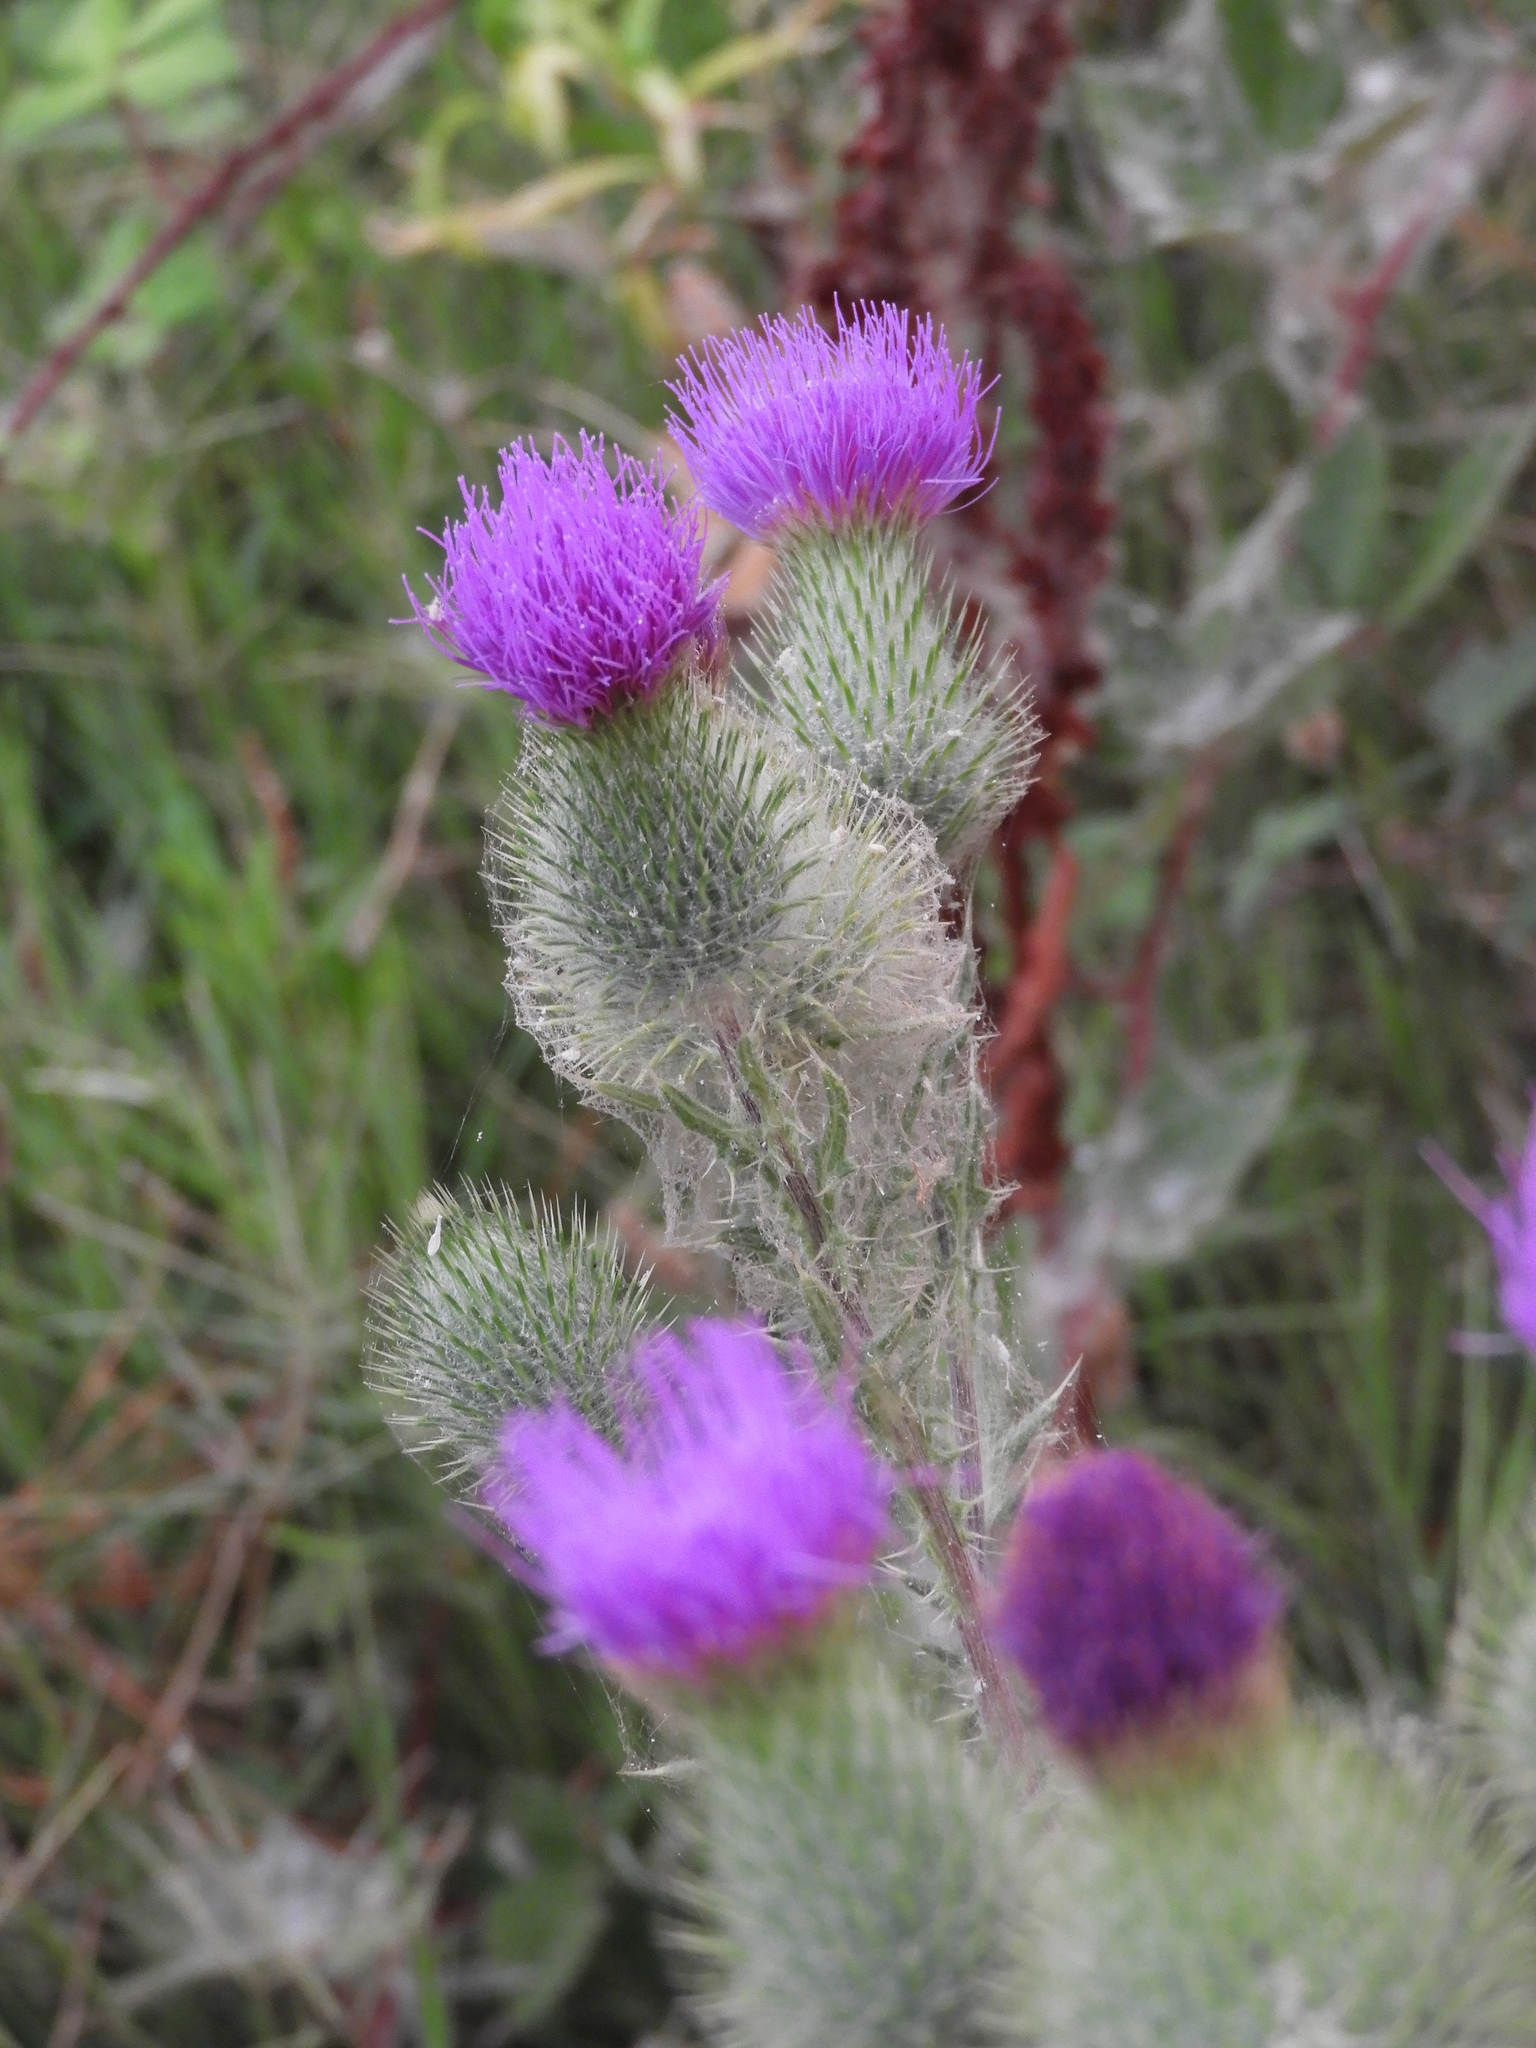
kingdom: Plantae
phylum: Tracheophyta
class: Magnoliopsida
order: Asterales
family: Asteraceae
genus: Cirsium
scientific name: Cirsium vulgare
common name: Bull thistle
